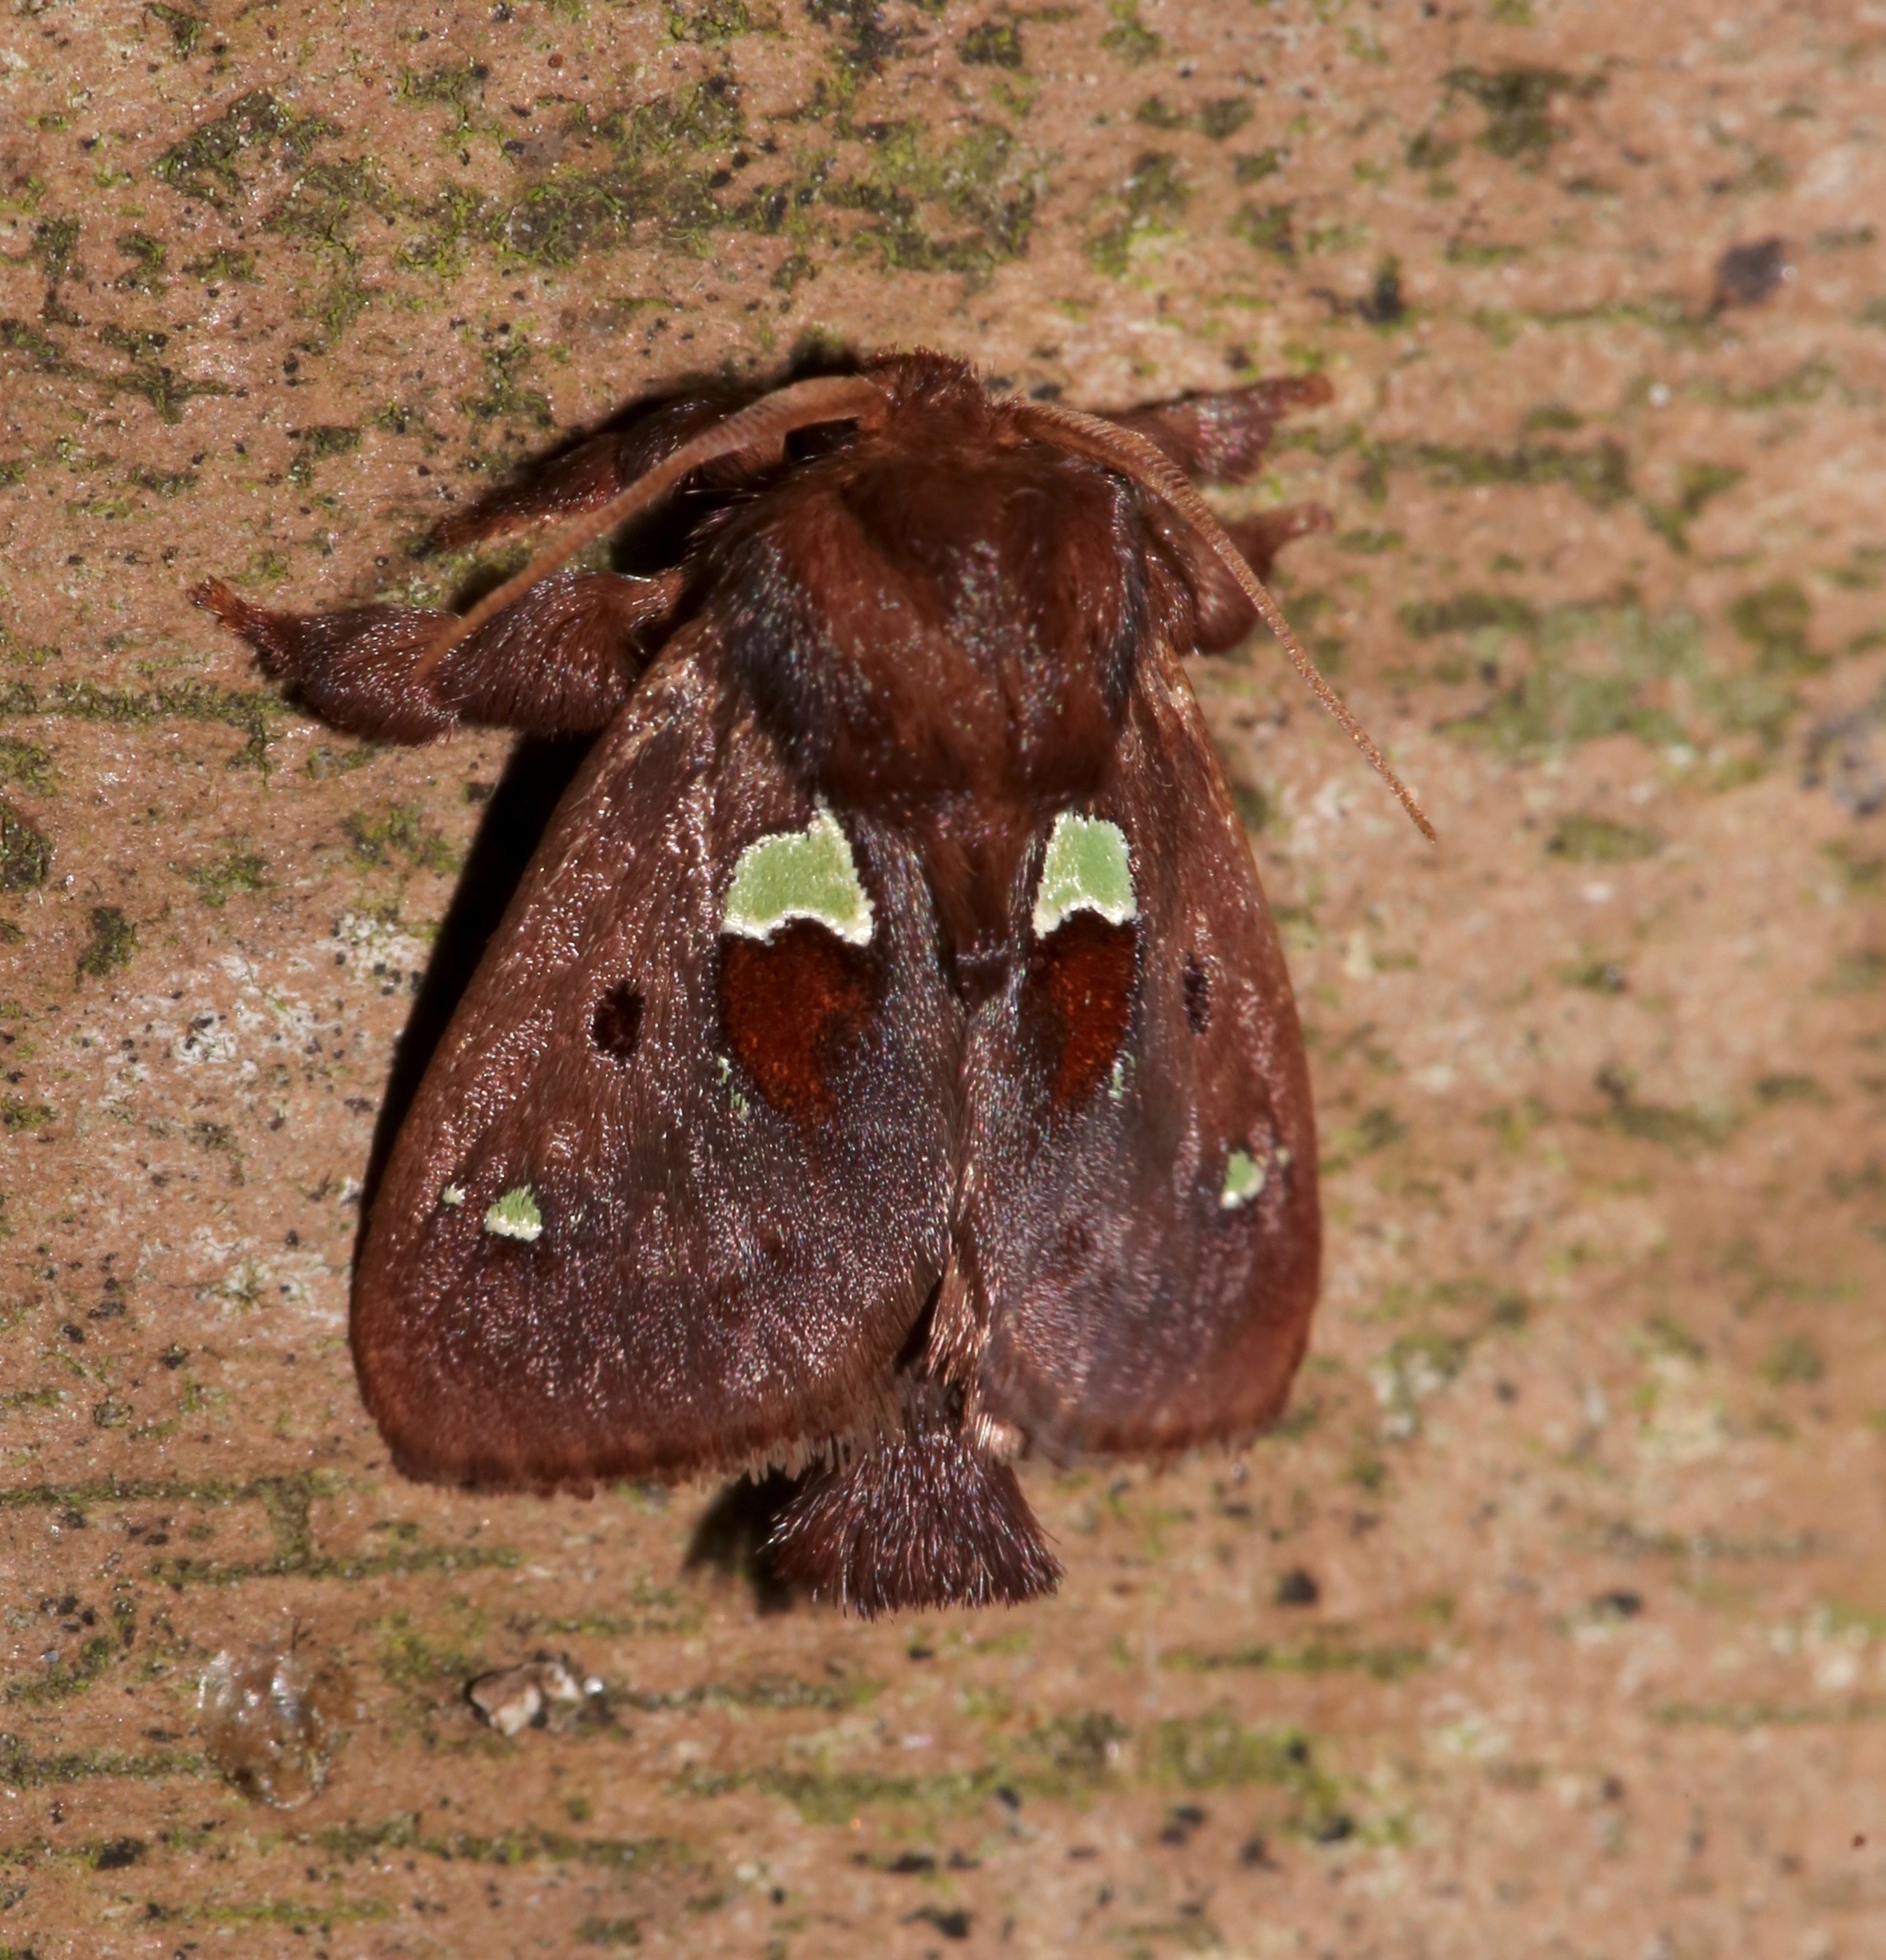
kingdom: Animalia
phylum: Arthropoda
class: Insecta
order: Lepidoptera
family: Limacodidae
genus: Euclea
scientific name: Euclea delphinii
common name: Spiny oak-slug moth
